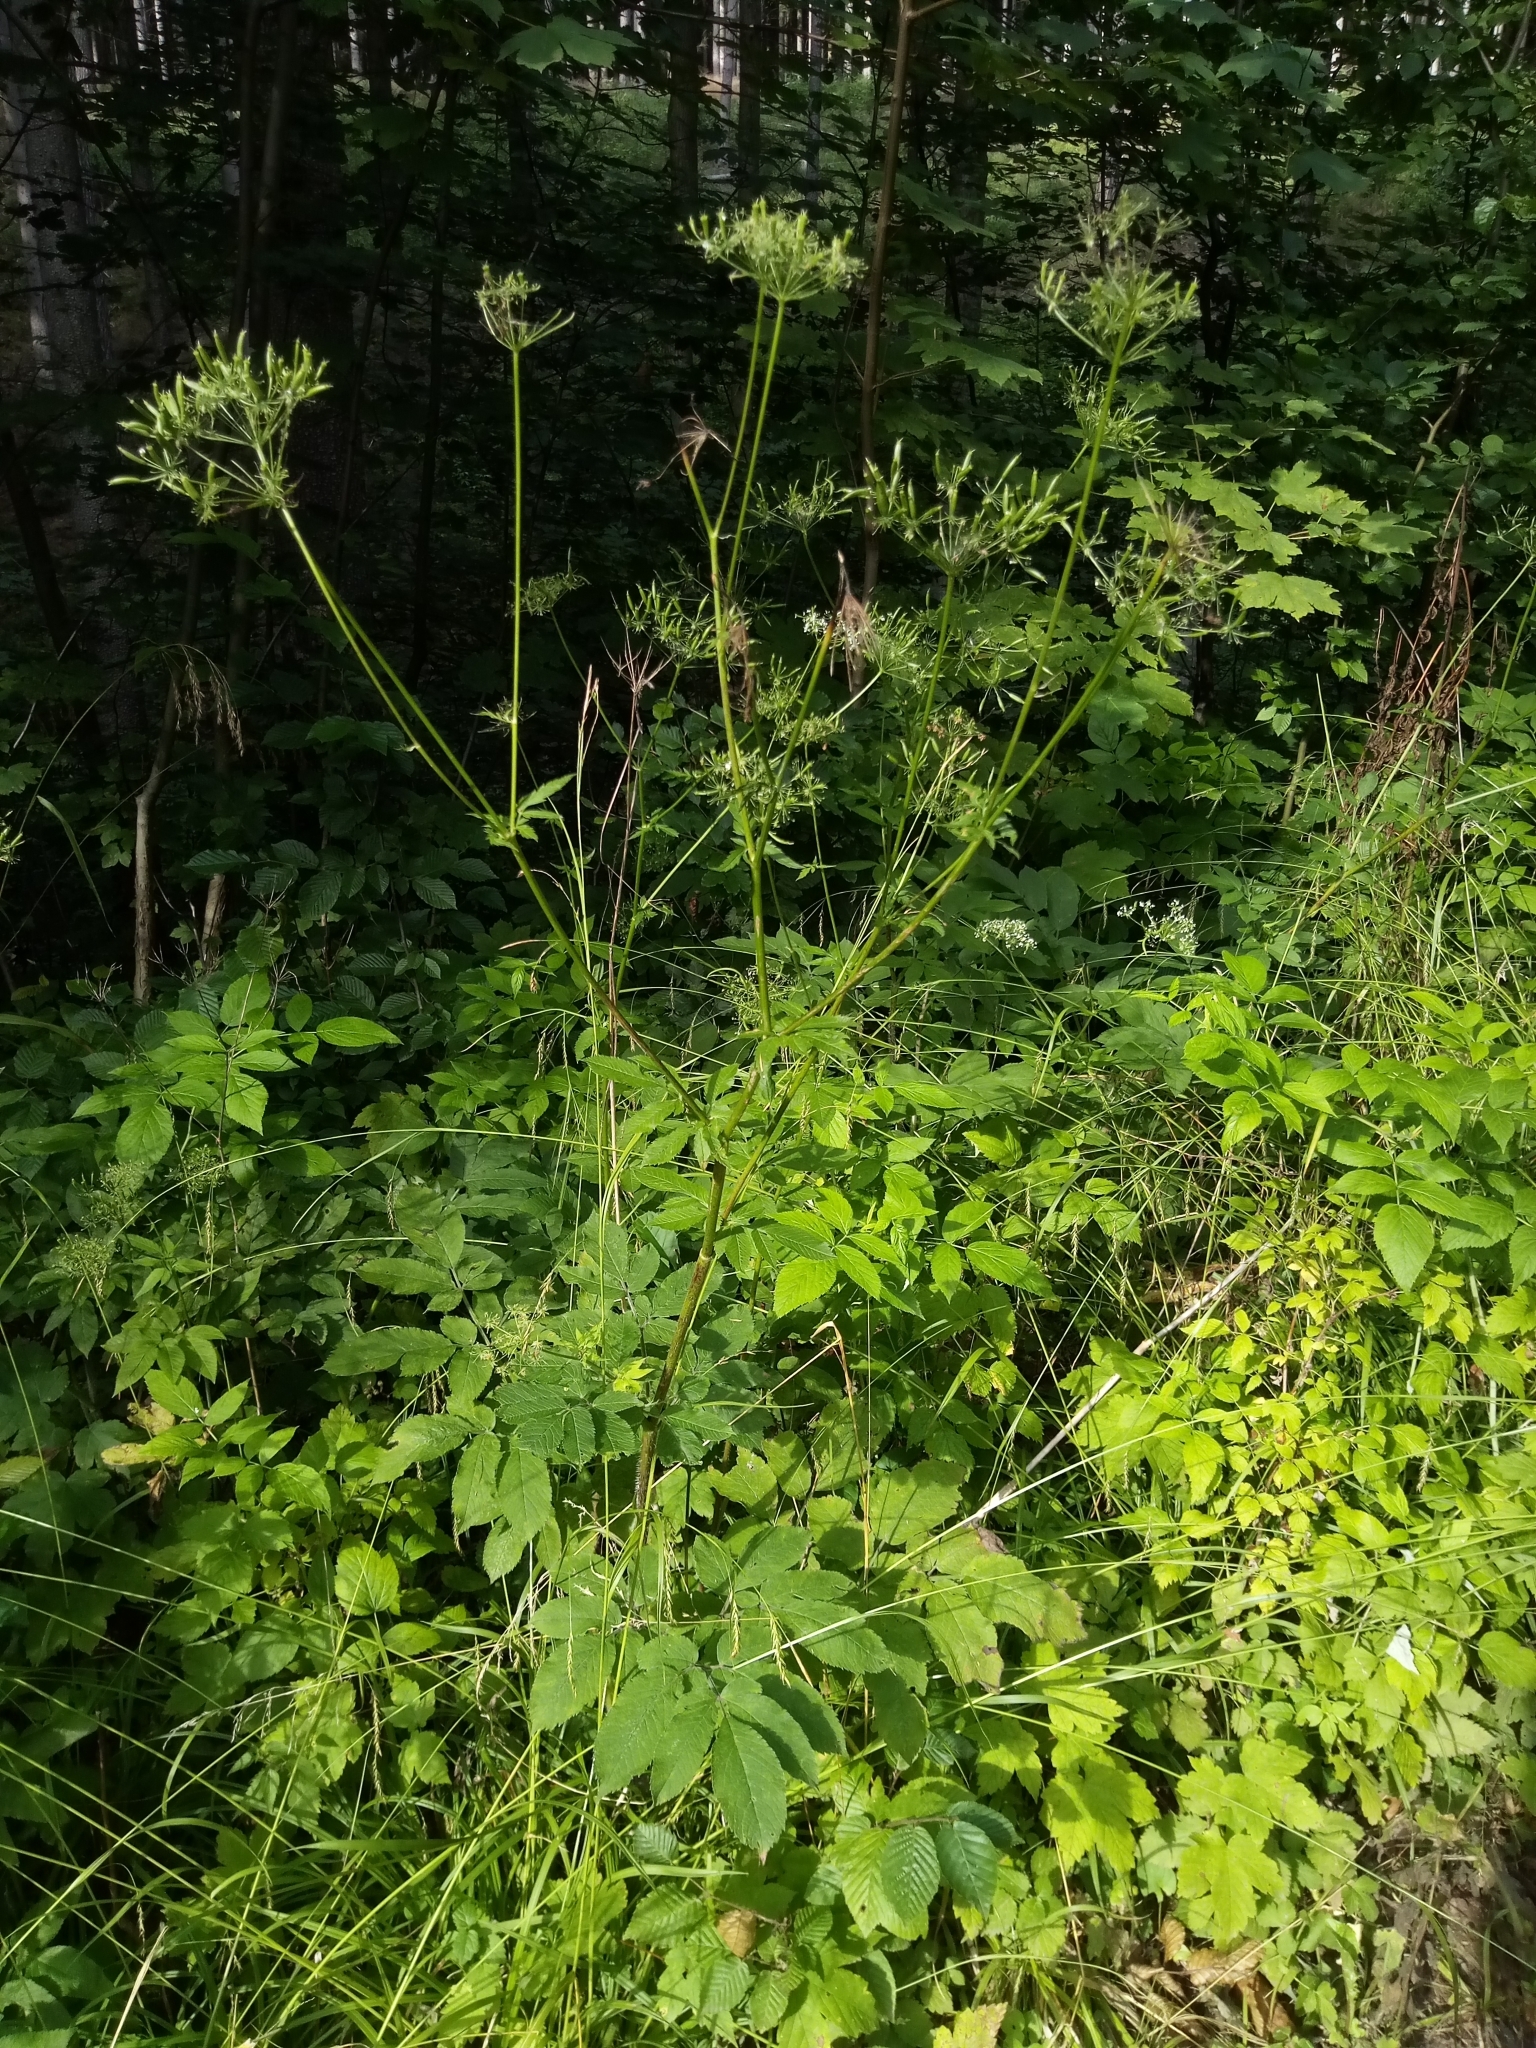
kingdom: Plantae
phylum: Tracheophyta
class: Magnoliopsida
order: Apiales
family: Apiaceae
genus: Chaerophyllum
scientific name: Chaerophyllum aromaticum
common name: Broadleaf chervil
